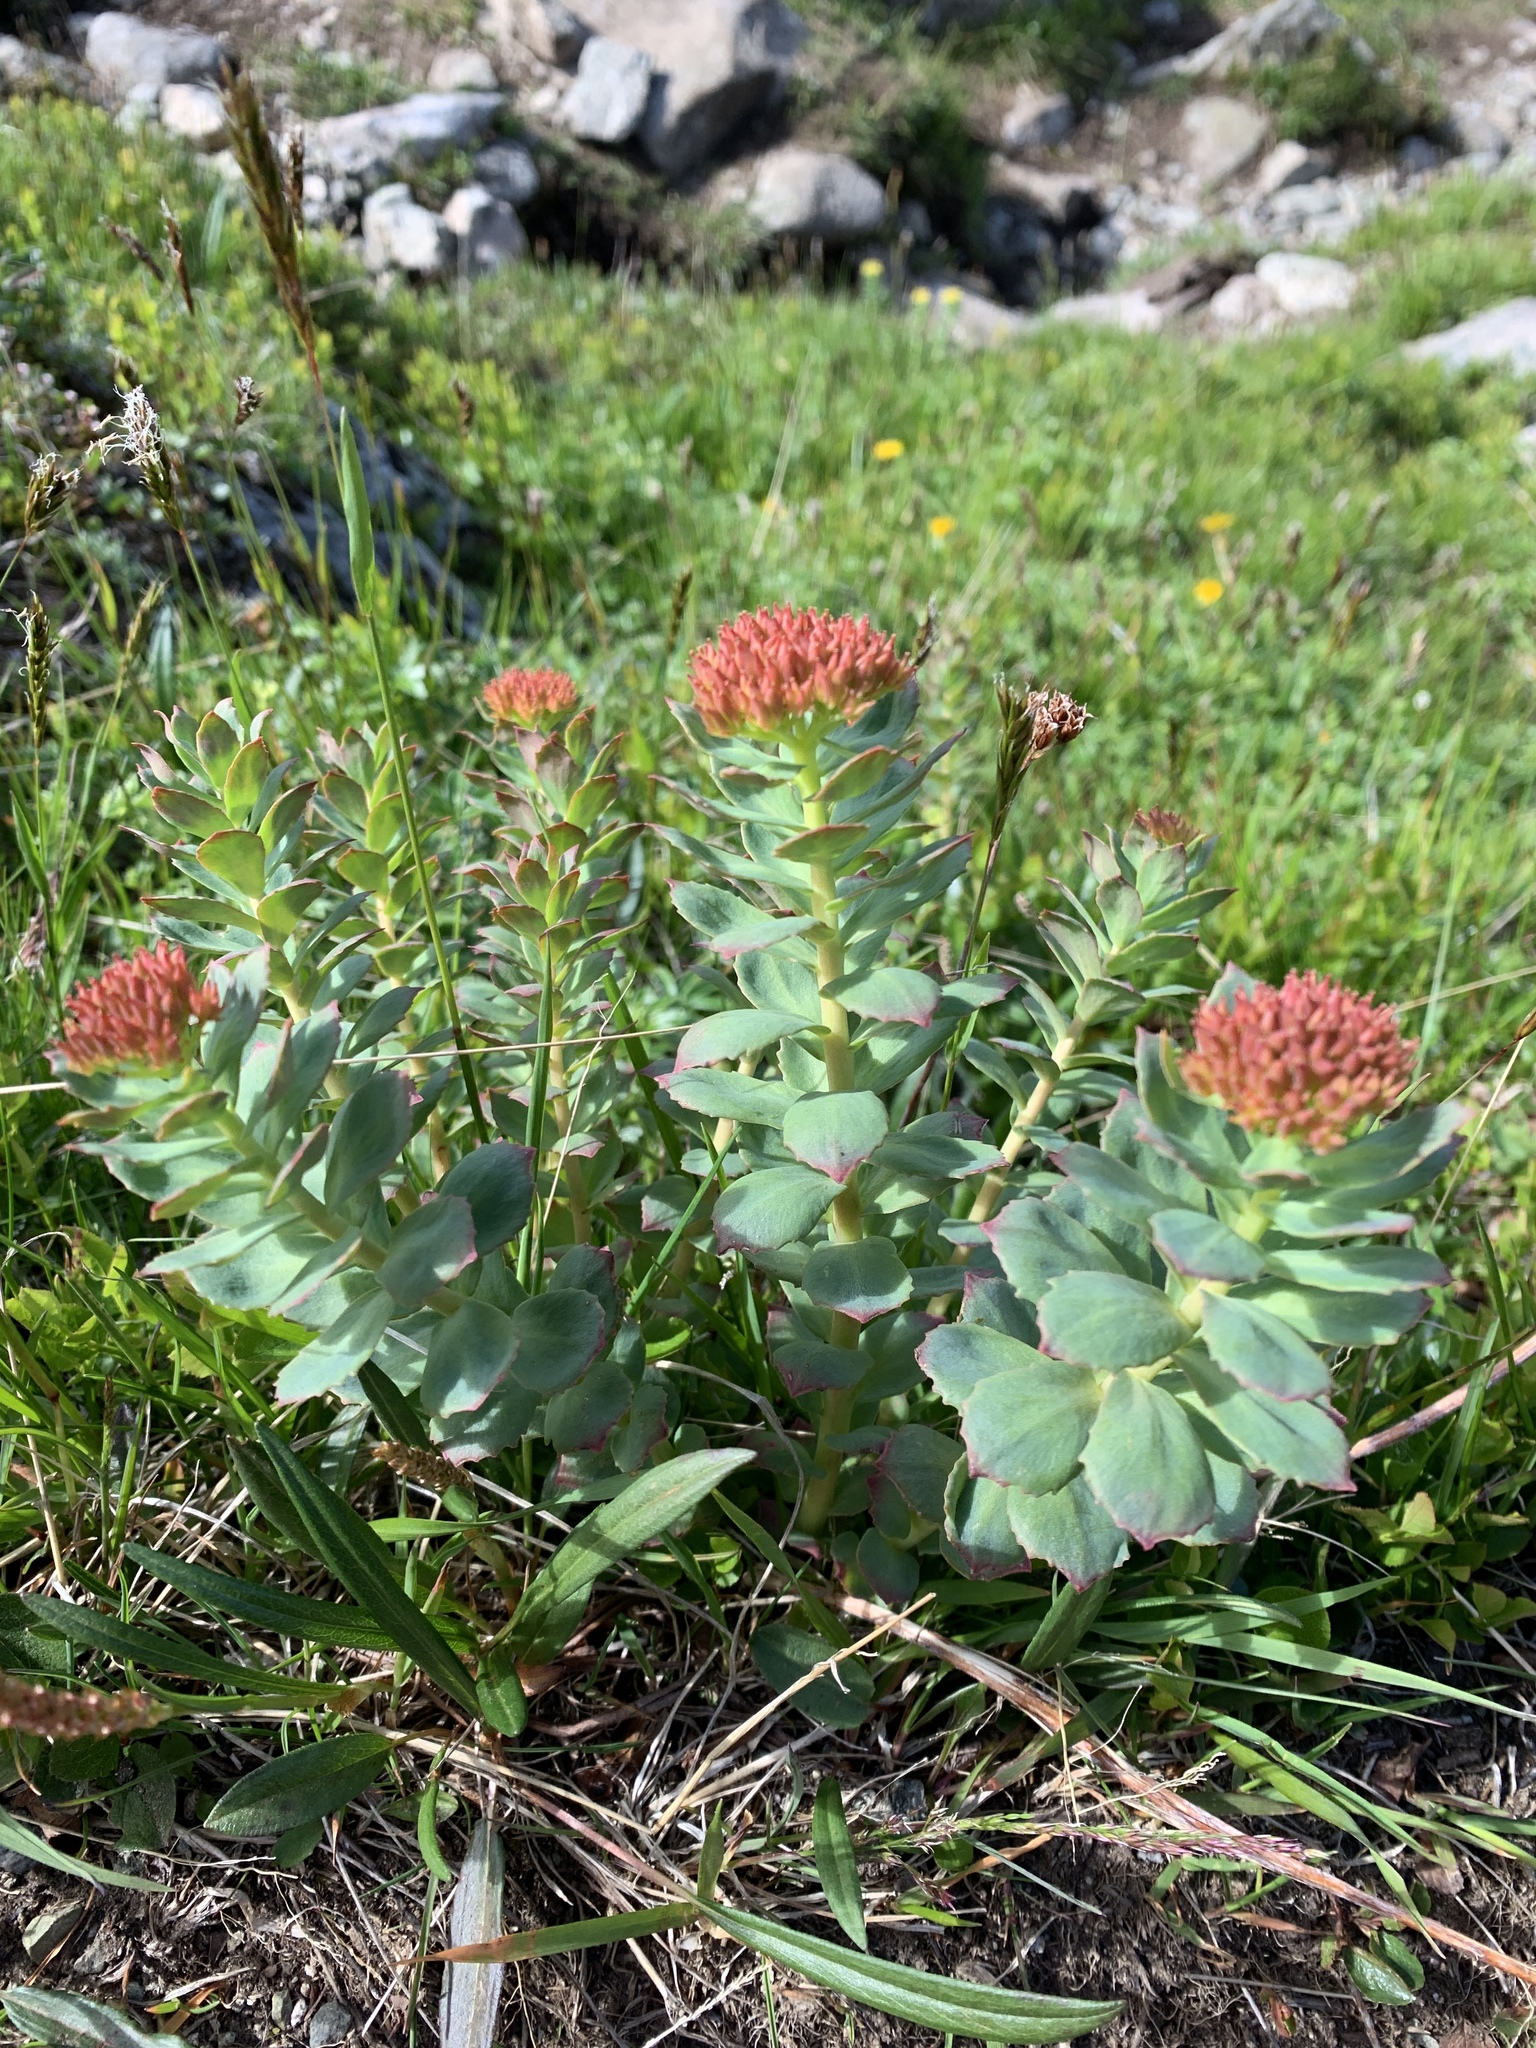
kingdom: Plantae
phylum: Tracheophyta
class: Magnoliopsida
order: Saxifragales
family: Crassulaceae
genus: Rhodiola
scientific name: Rhodiola rosea
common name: Roseroot
